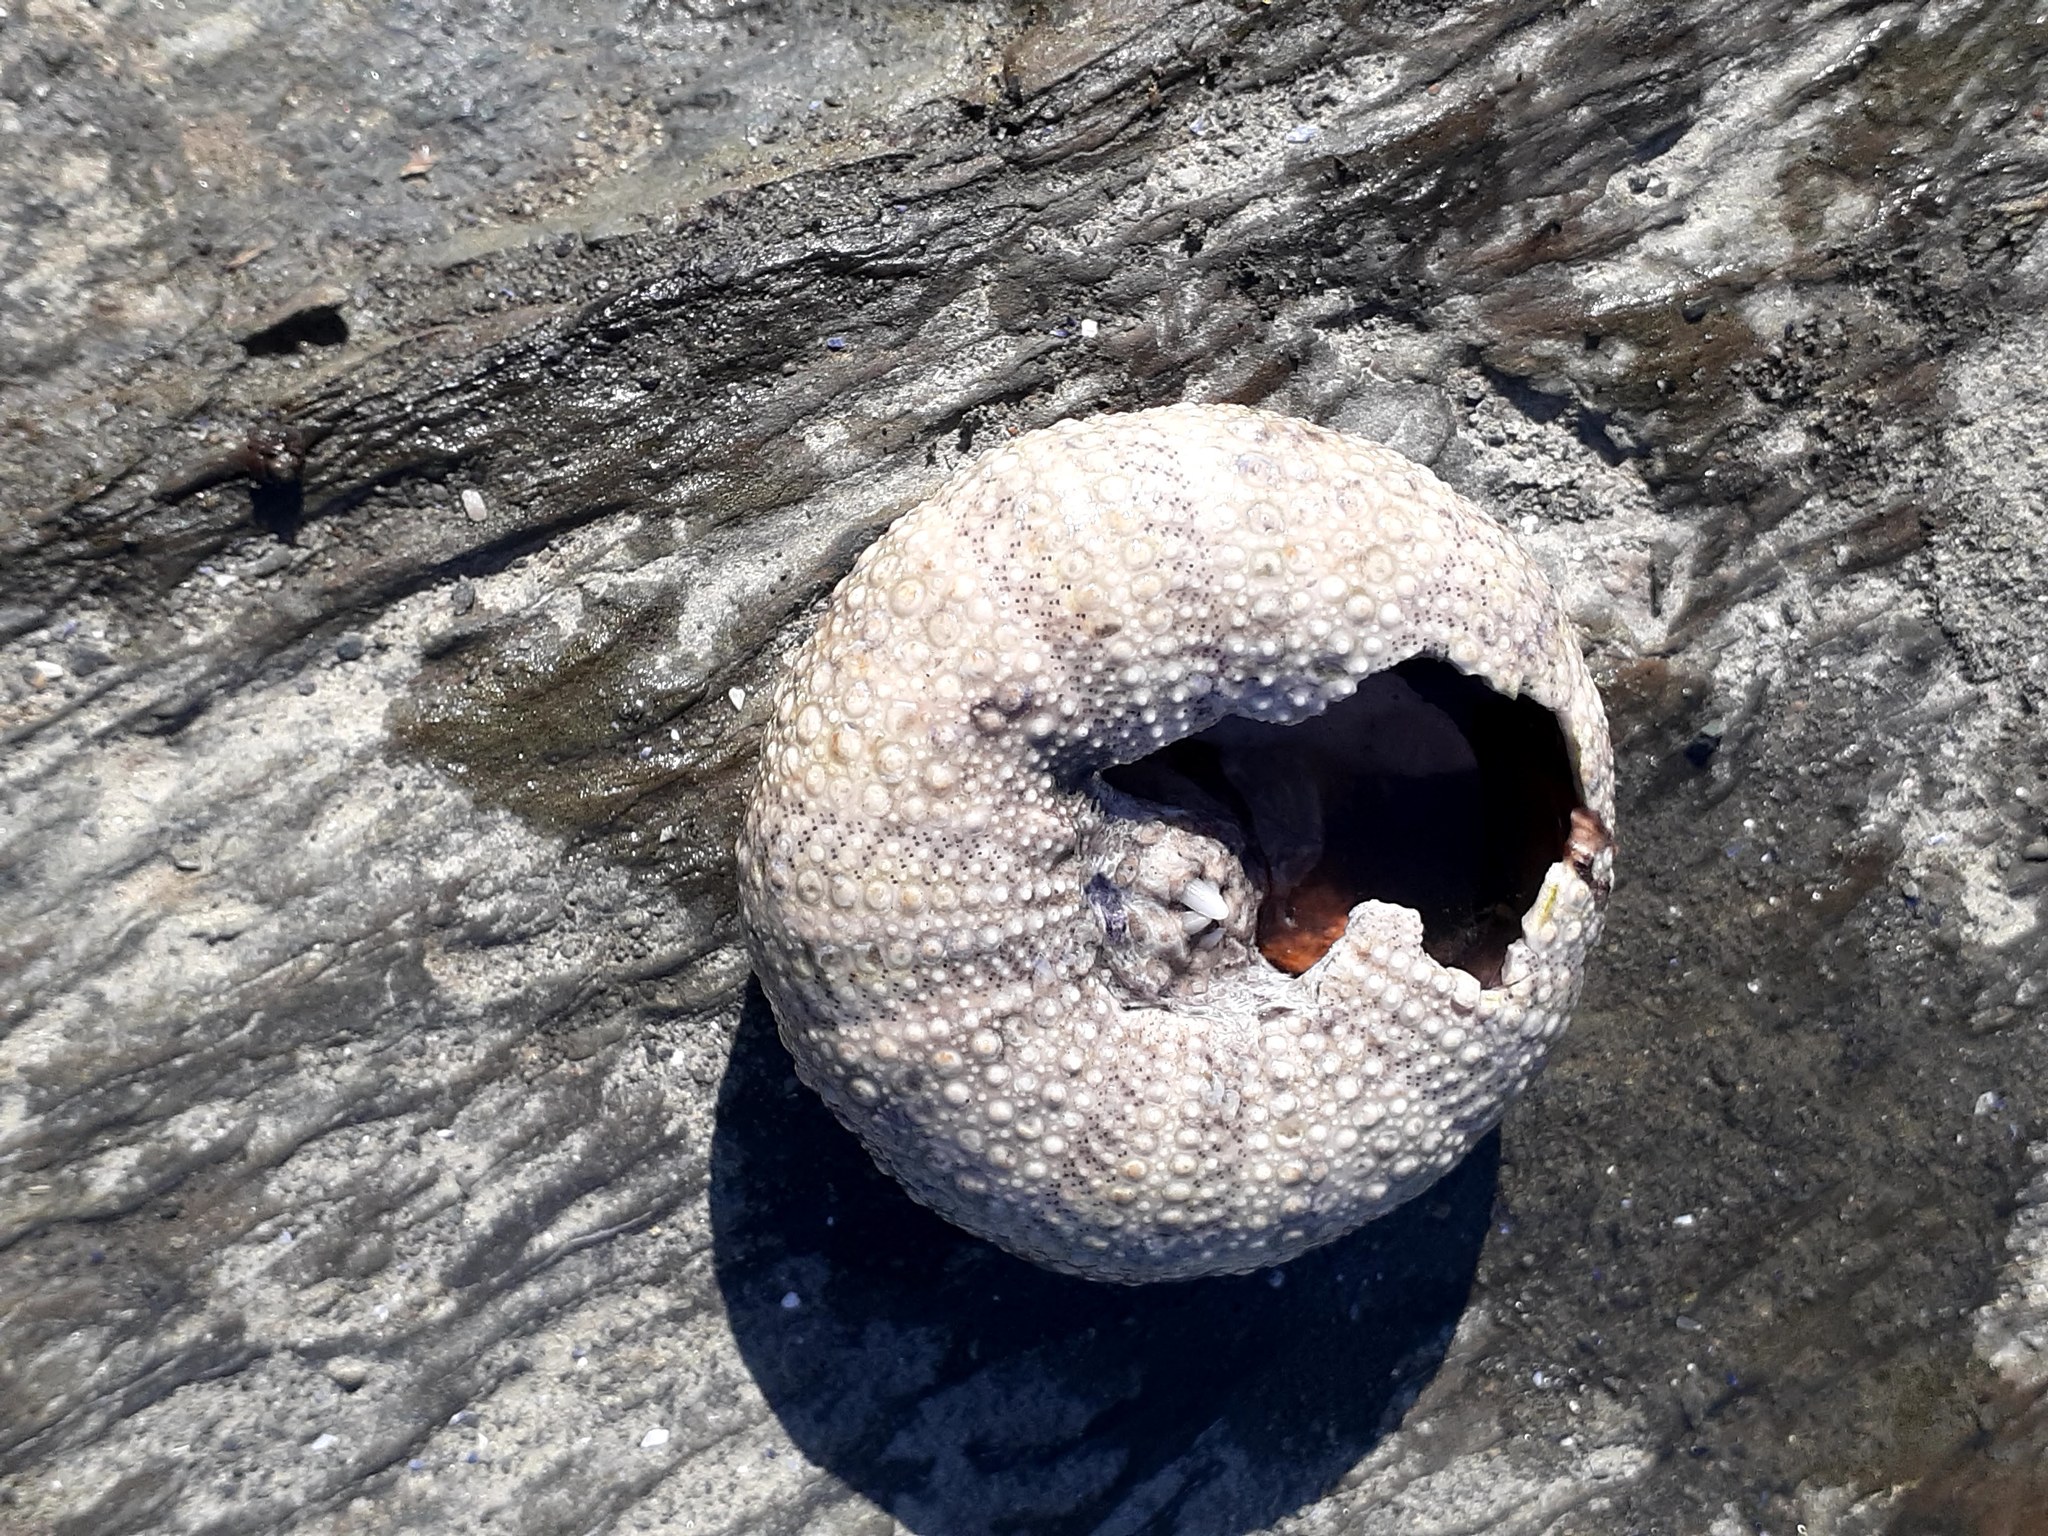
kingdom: Animalia
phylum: Echinodermata
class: Echinoidea
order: Camarodonta
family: Strongylocentrotidae
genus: Strongylocentrotus
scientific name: Strongylocentrotus droebachiensis
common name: Northern sea urchin
